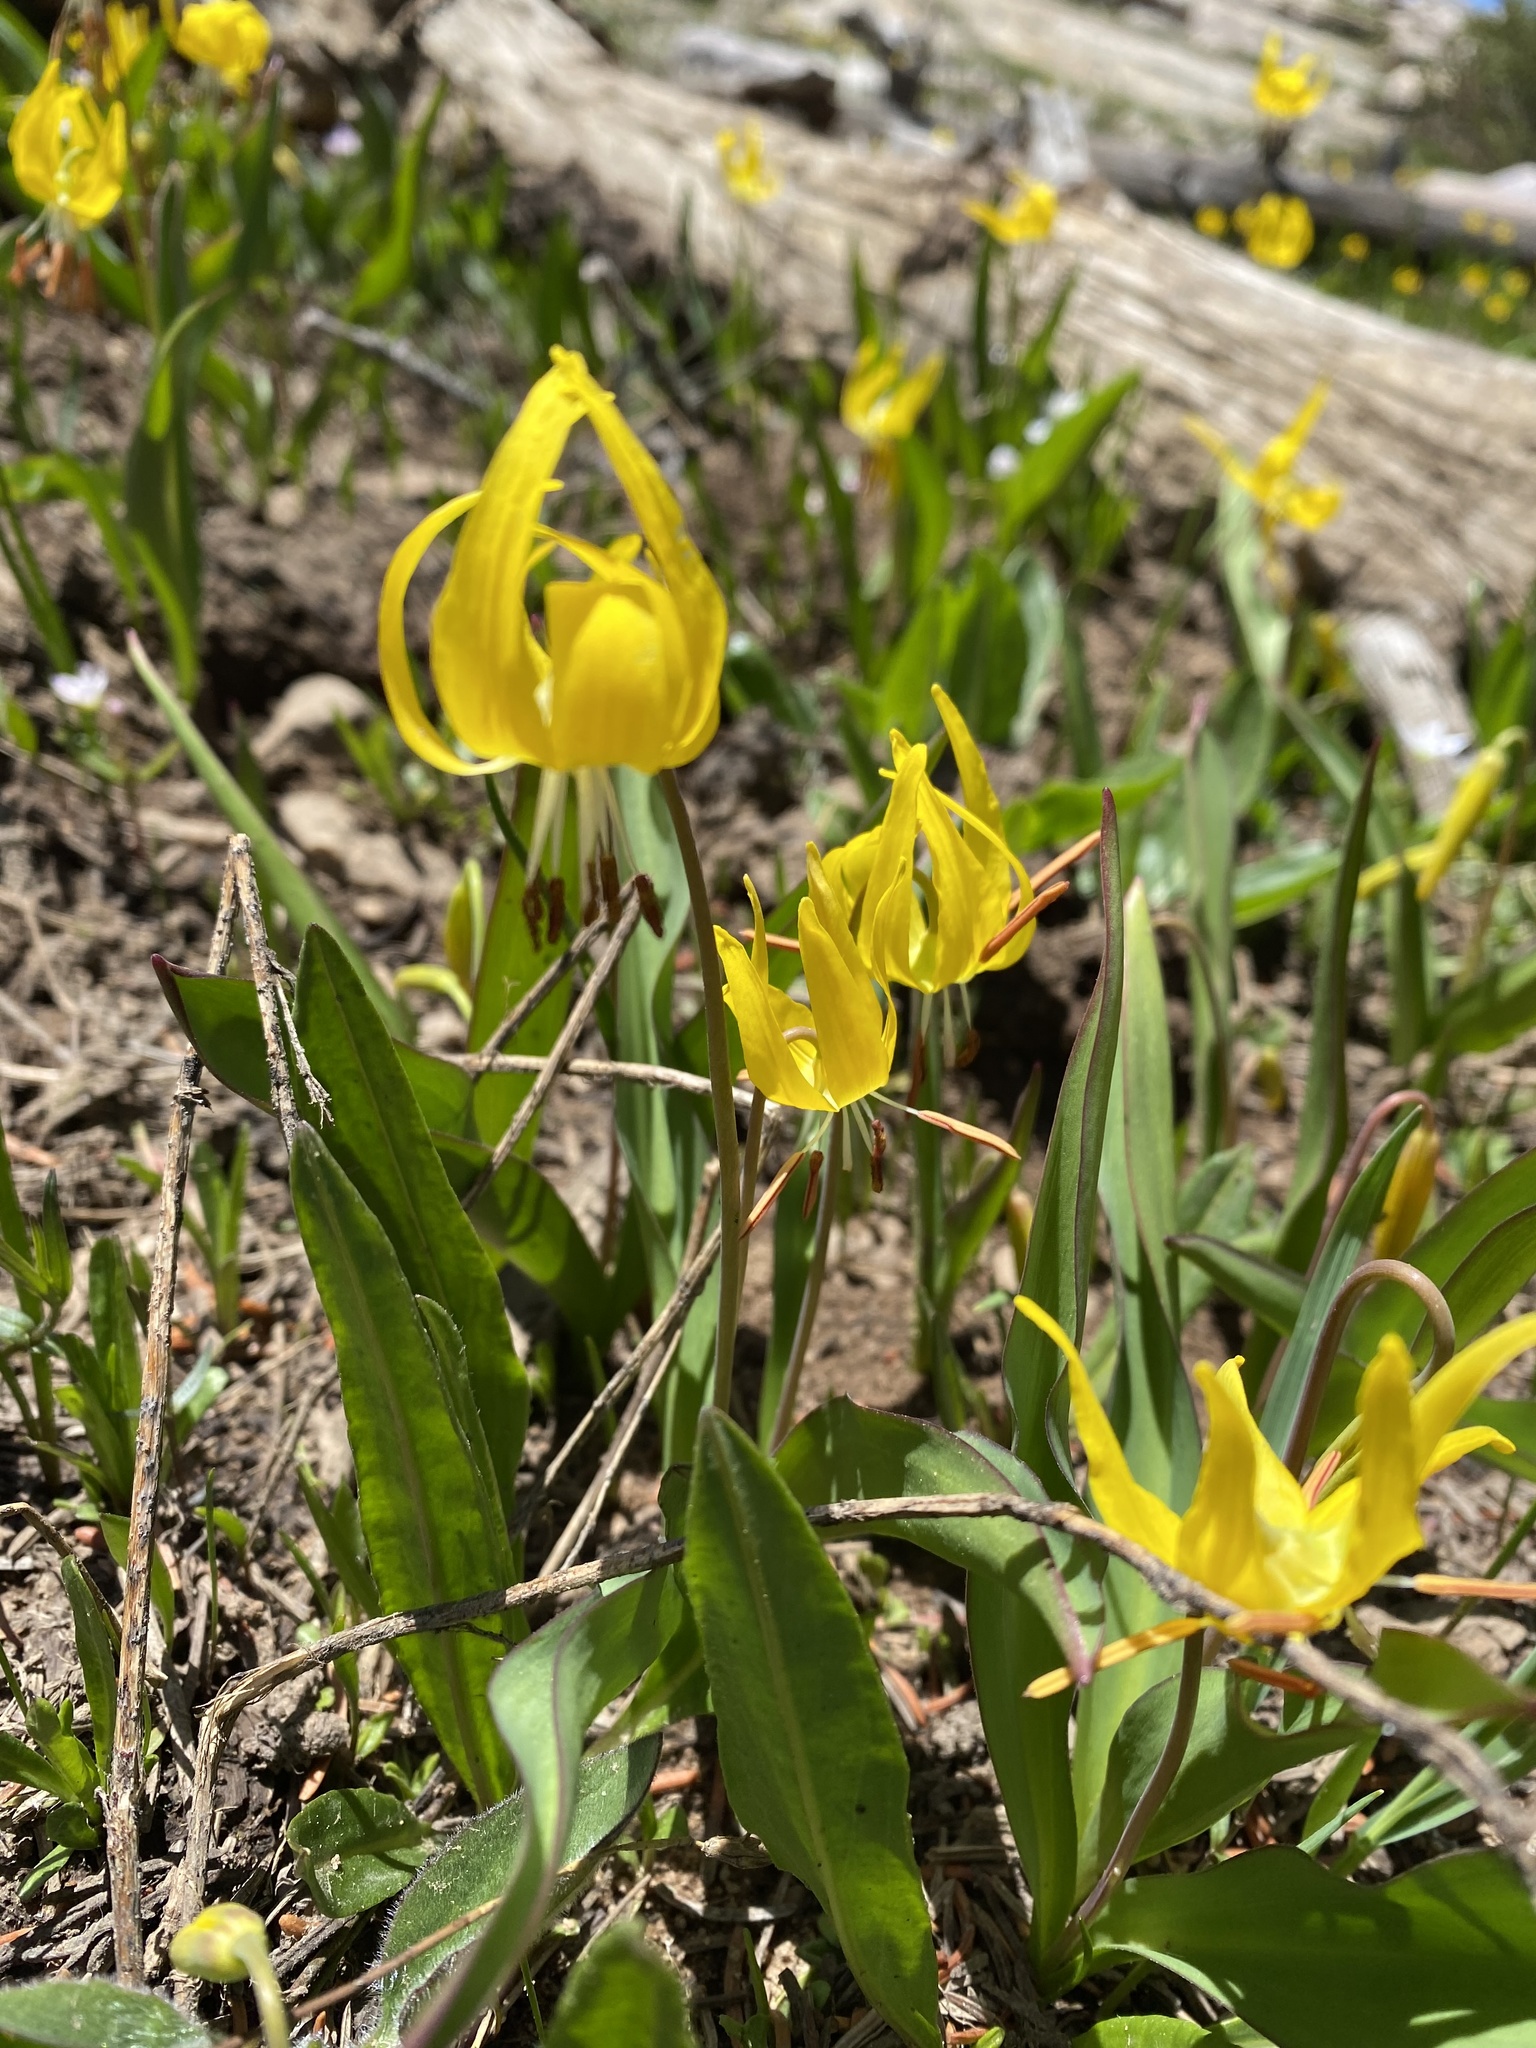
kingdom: Plantae
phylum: Tracheophyta
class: Liliopsida
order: Liliales
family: Liliaceae
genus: Erythronium
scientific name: Erythronium grandiflorum
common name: Avalanche-lily
